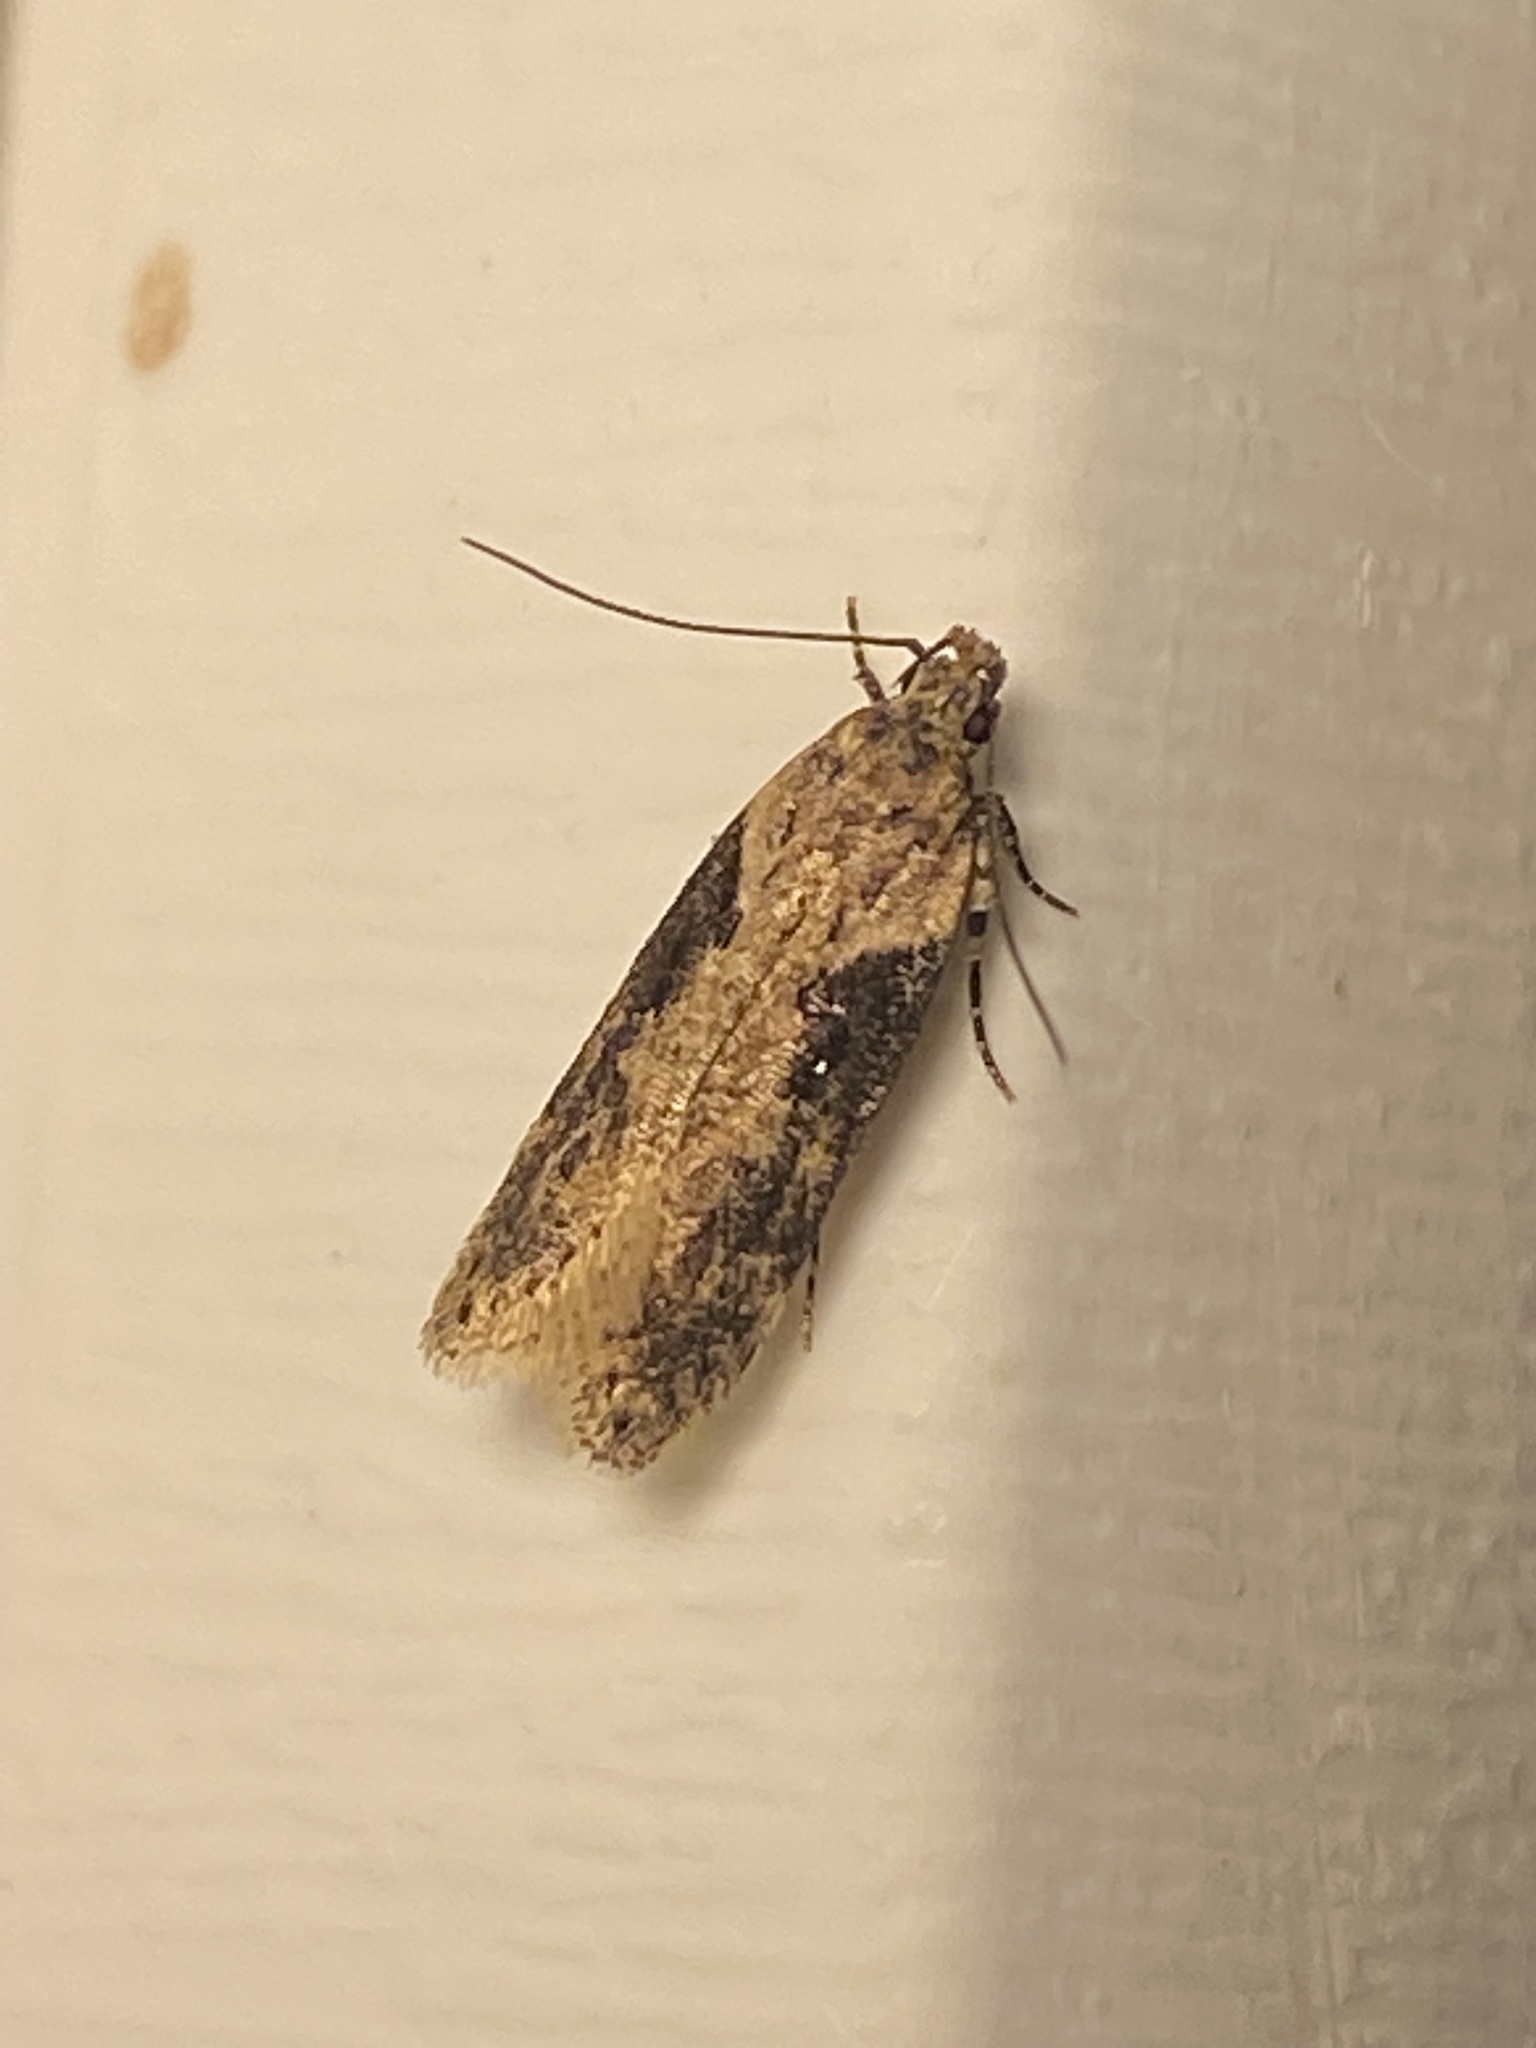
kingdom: Animalia
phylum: Arthropoda
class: Insecta
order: Lepidoptera
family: Gelechiidae
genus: Chionodes
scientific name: Chionodes mediofuscella
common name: Black-smudged chionodes moth
